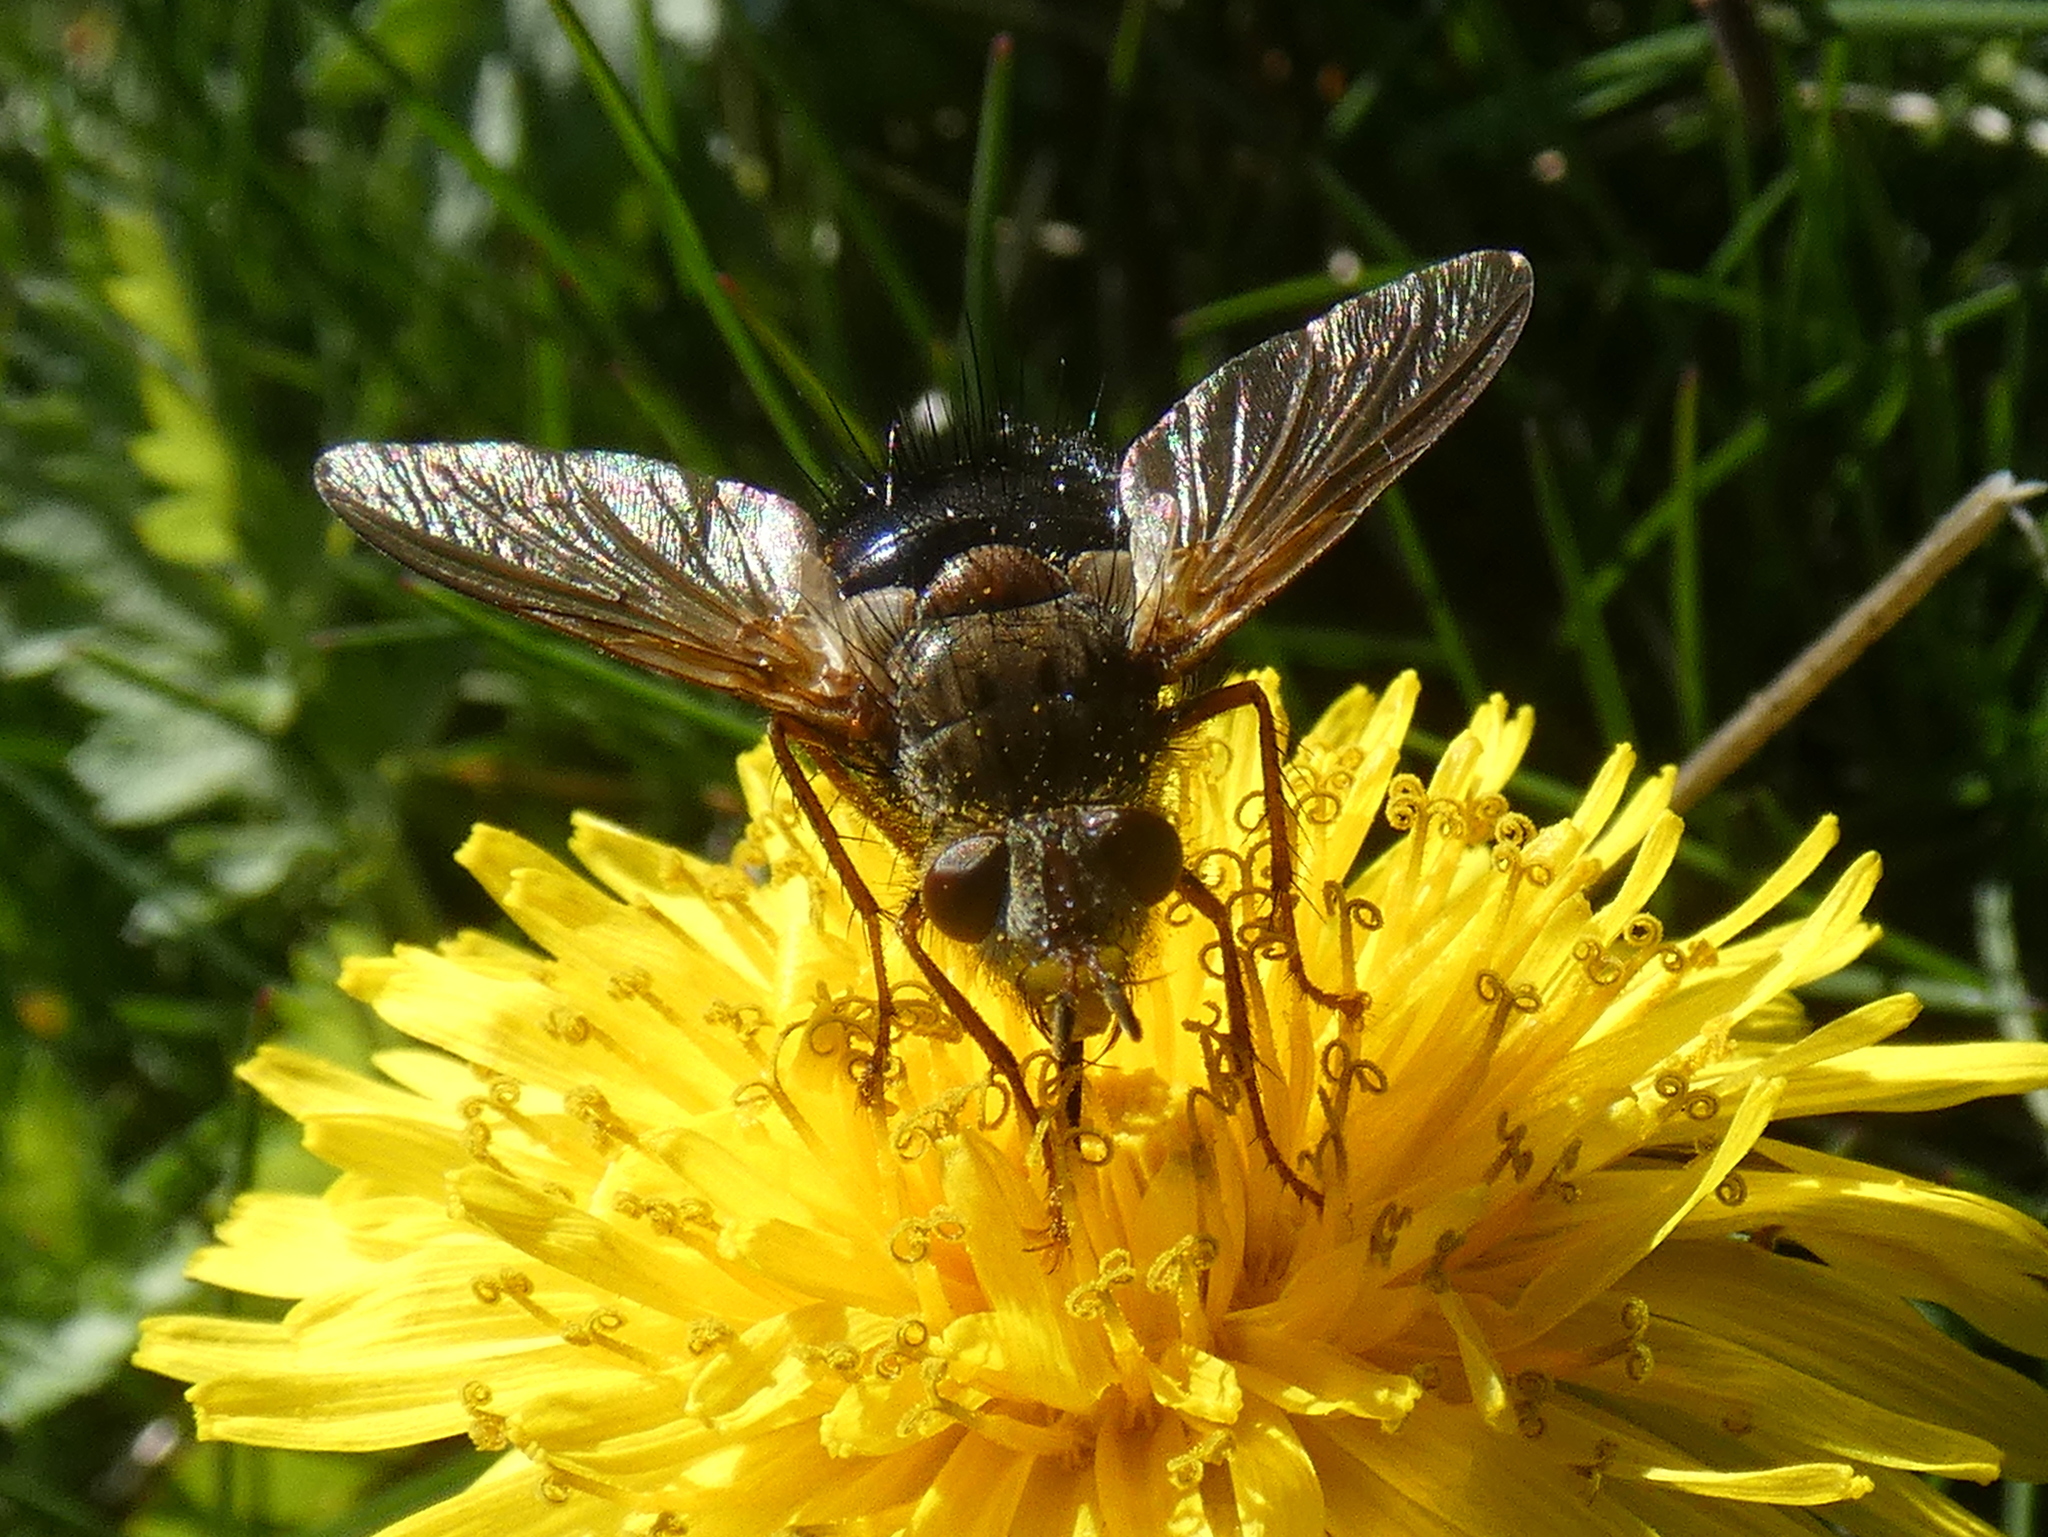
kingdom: Animalia
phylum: Arthropoda
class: Insecta
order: Diptera
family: Tachinidae
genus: Epalpus
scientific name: Epalpus signifer
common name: Early tachinid fly
